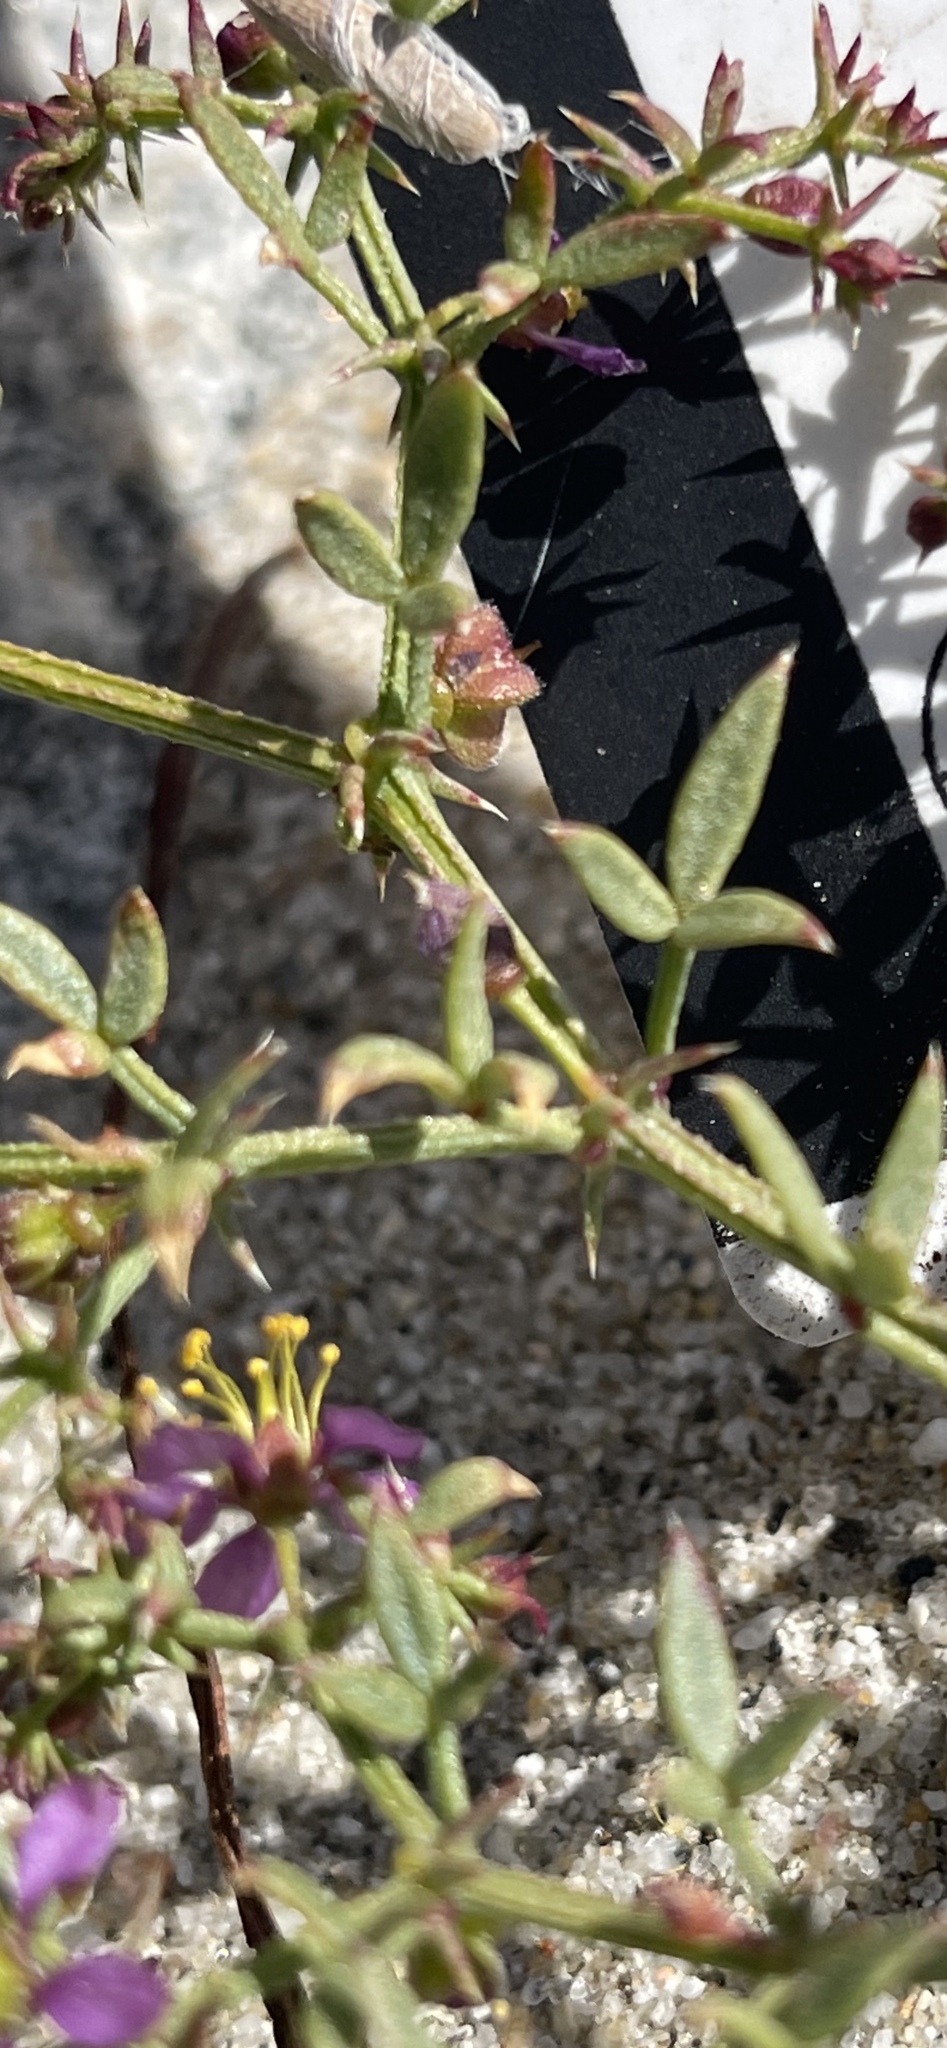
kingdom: Plantae
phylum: Tracheophyta
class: Magnoliopsida
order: Zygophyllales
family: Zygophyllaceae
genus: Fagonia
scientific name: Fagonia laevis
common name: California fagonbush
